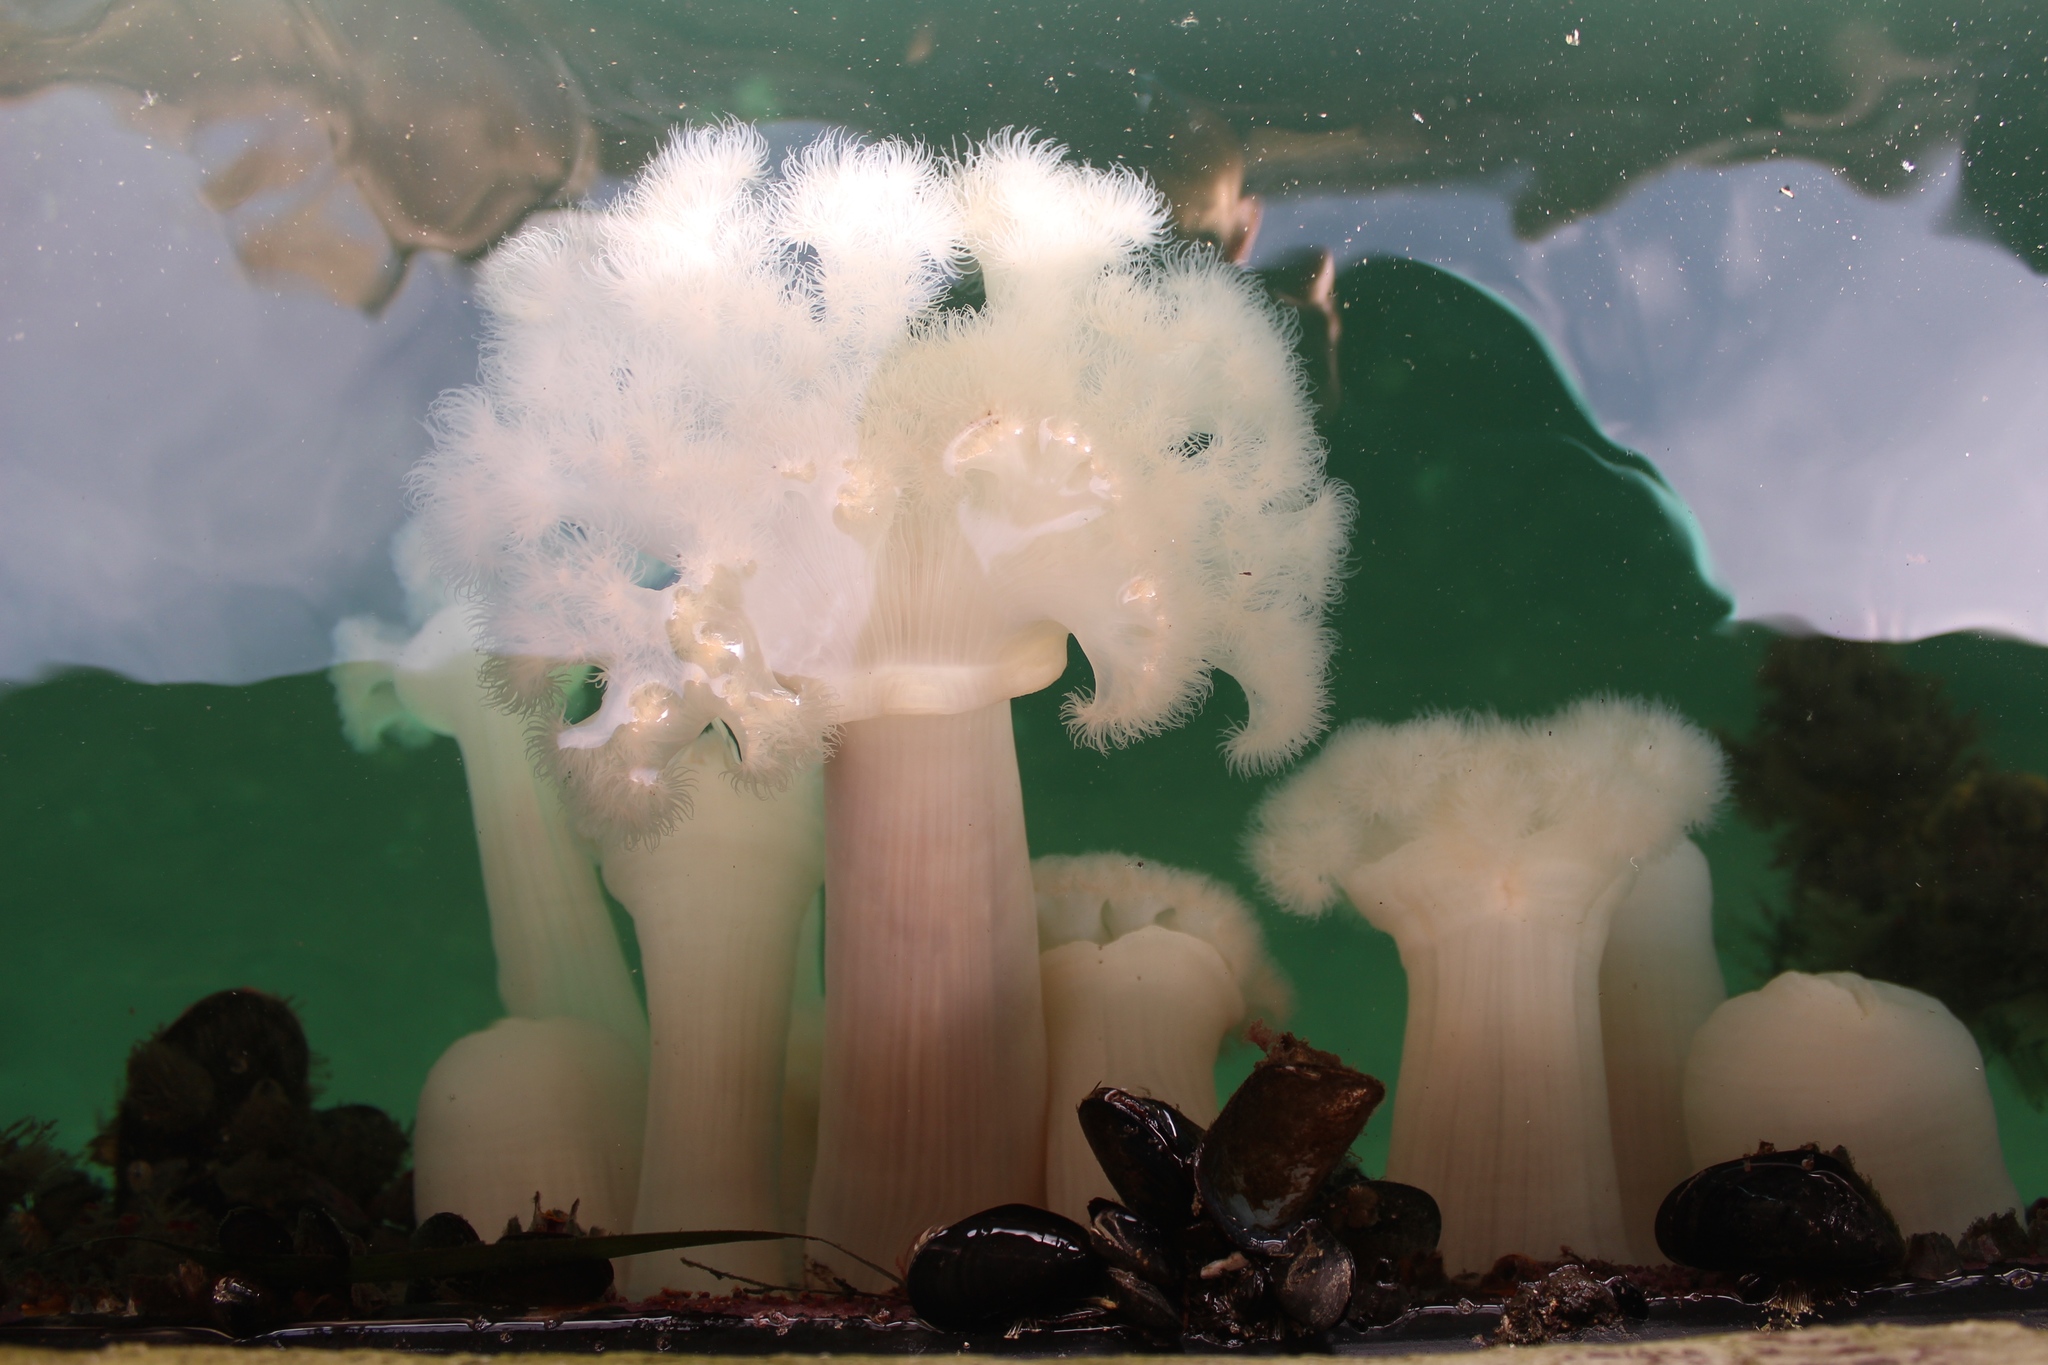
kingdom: Animalia
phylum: Cnidaria
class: Anthozoa
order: Actiniaria
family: Metridiidae
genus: Metridium
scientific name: Metridium farcimen
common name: Gigantic anemone
